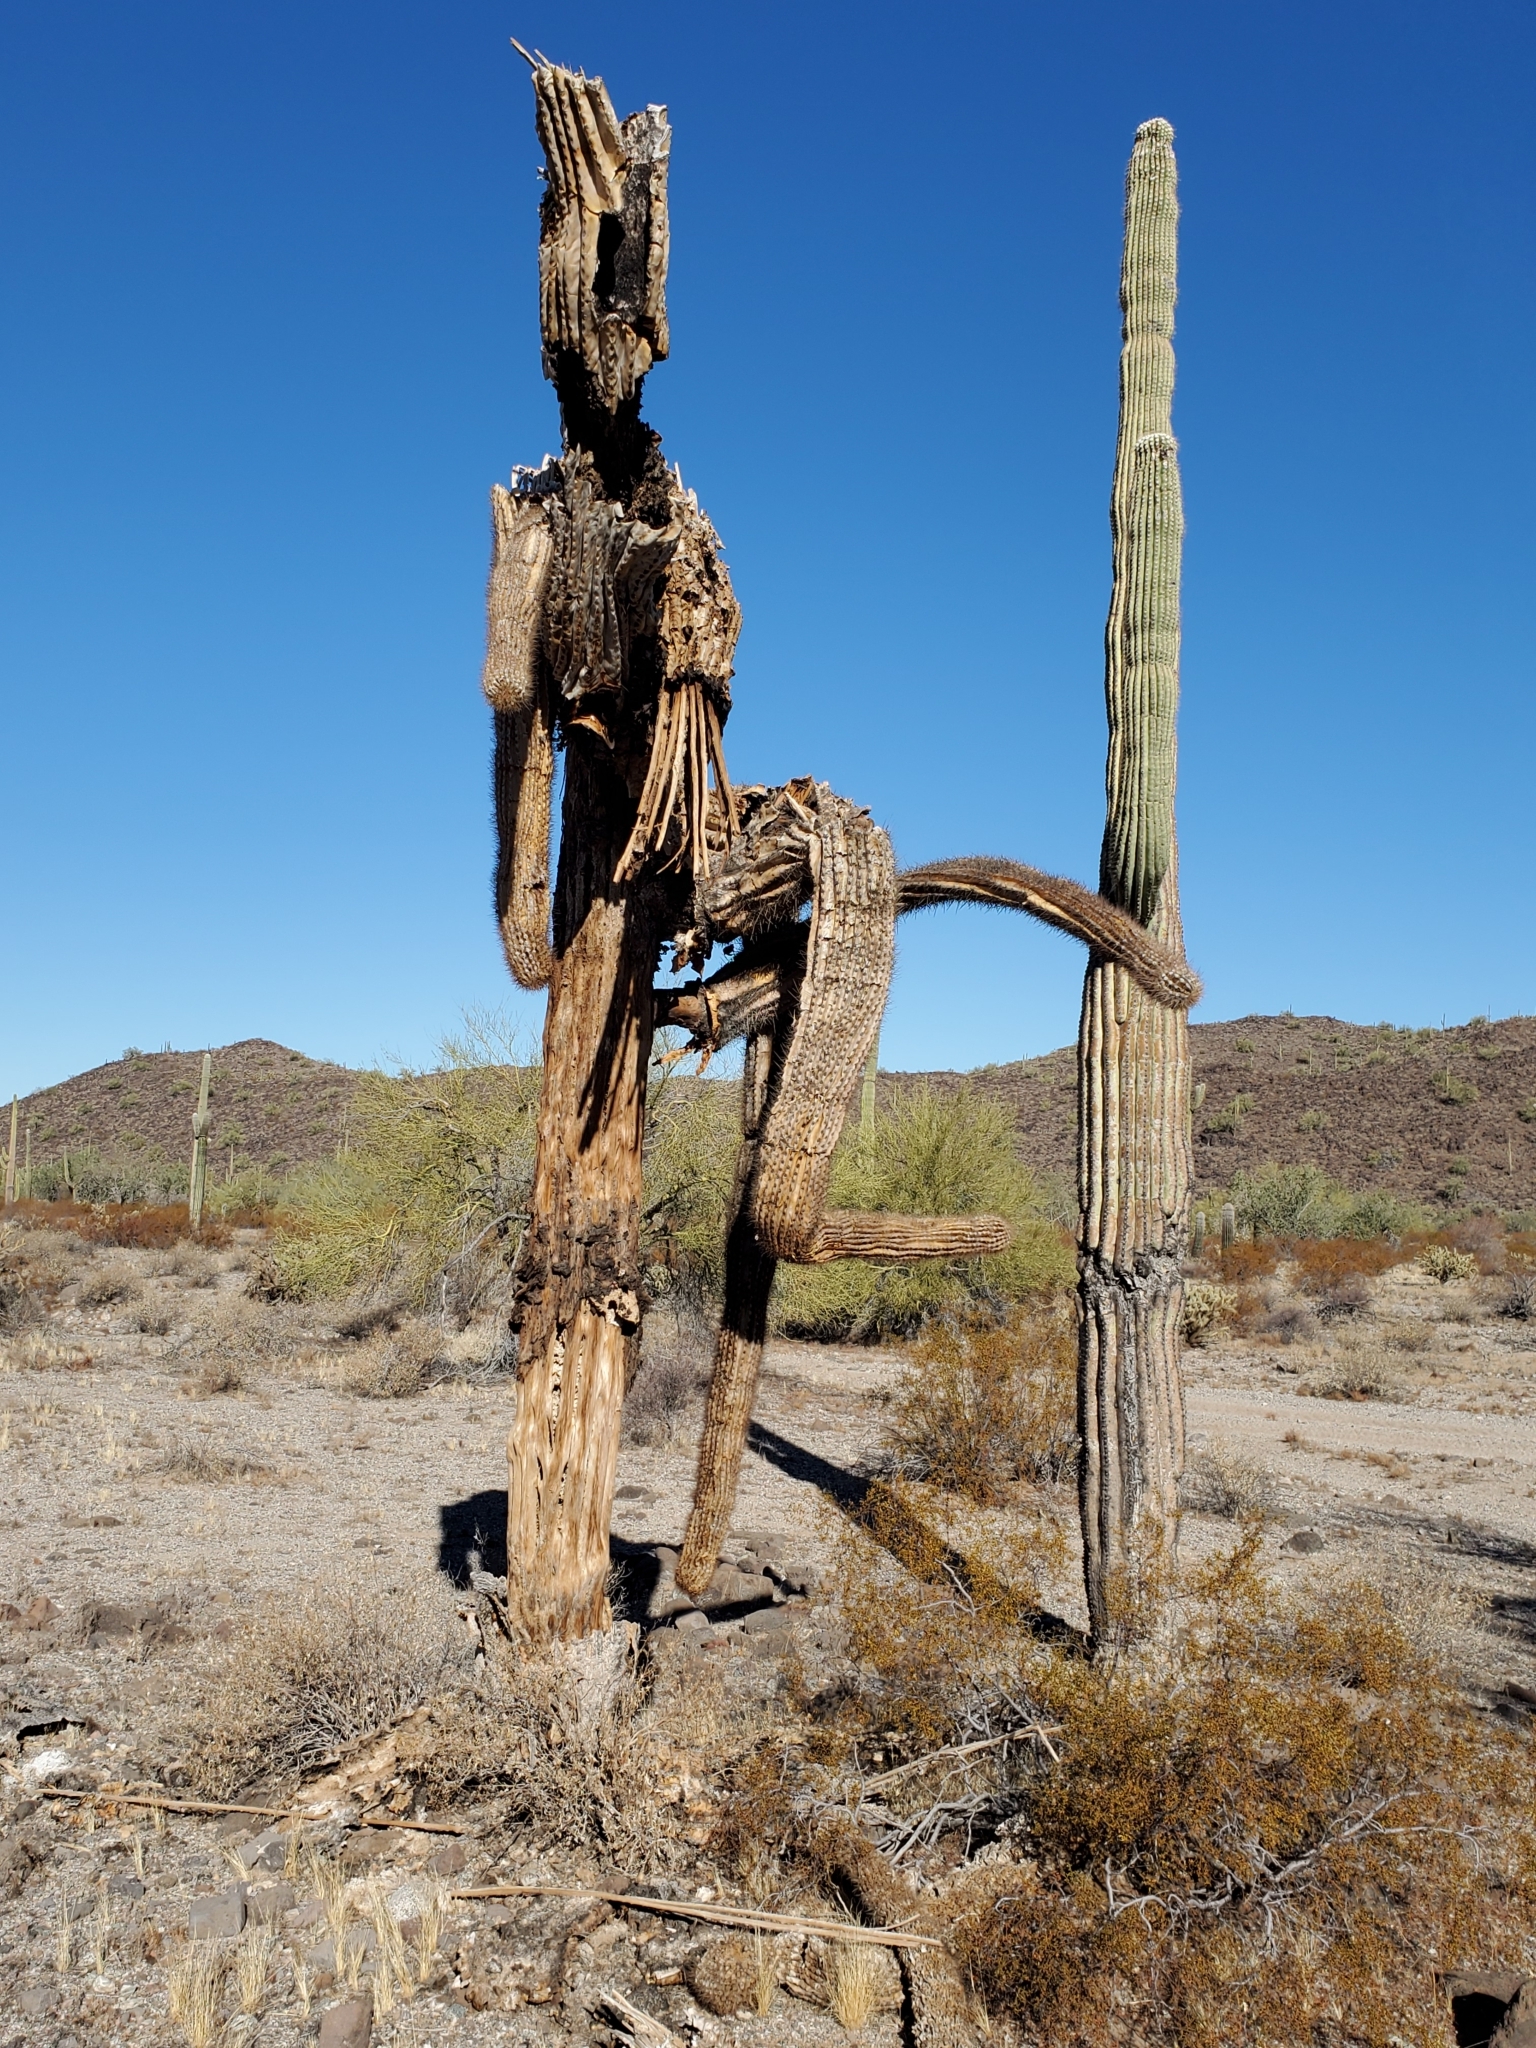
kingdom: Plantae
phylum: Tracheophyta
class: Magnoliopsida
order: Caryophyllales
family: Cactaceae
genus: Carnegiea
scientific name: Carnegiea gigantea
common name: Saguaro
